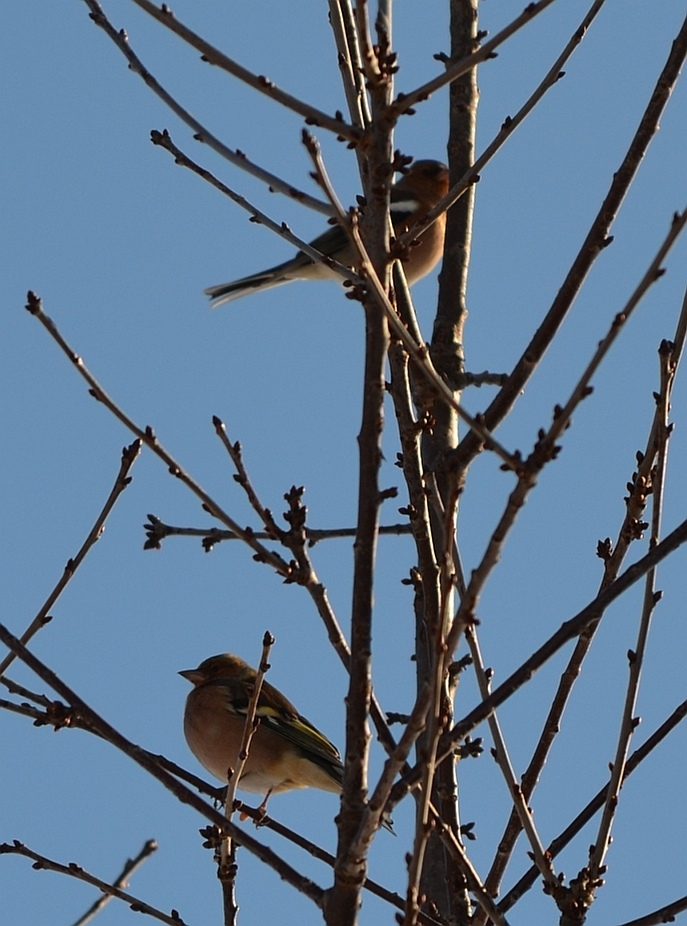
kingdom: Animalia
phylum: Chordata
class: Aves
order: Passeriformes
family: Fringillidae
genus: Fringilla
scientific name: Fringilla coelebs
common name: Common chaffinch
